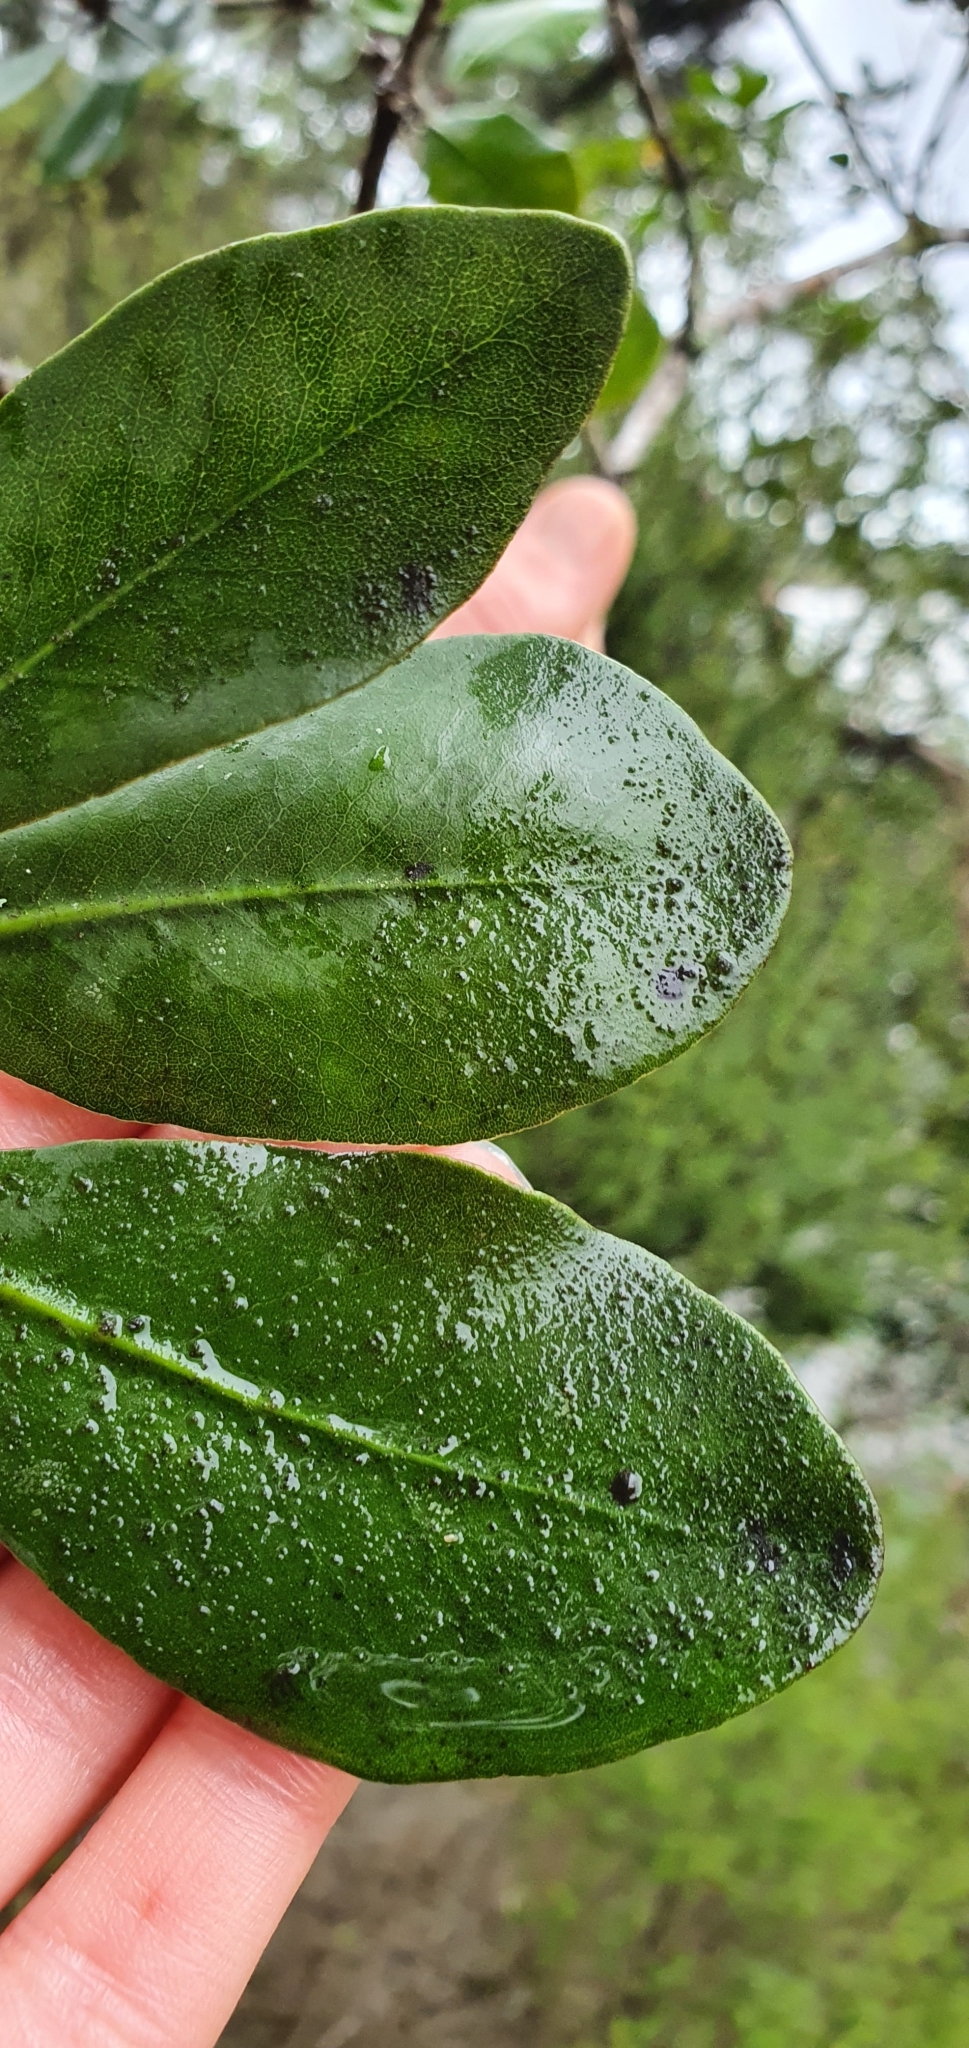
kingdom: Plantae
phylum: Tracheophyta
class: Magnoliopsida
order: Apiales
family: Pittosporaceae
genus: Pittosporum
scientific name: Pittosporum umbellatum
